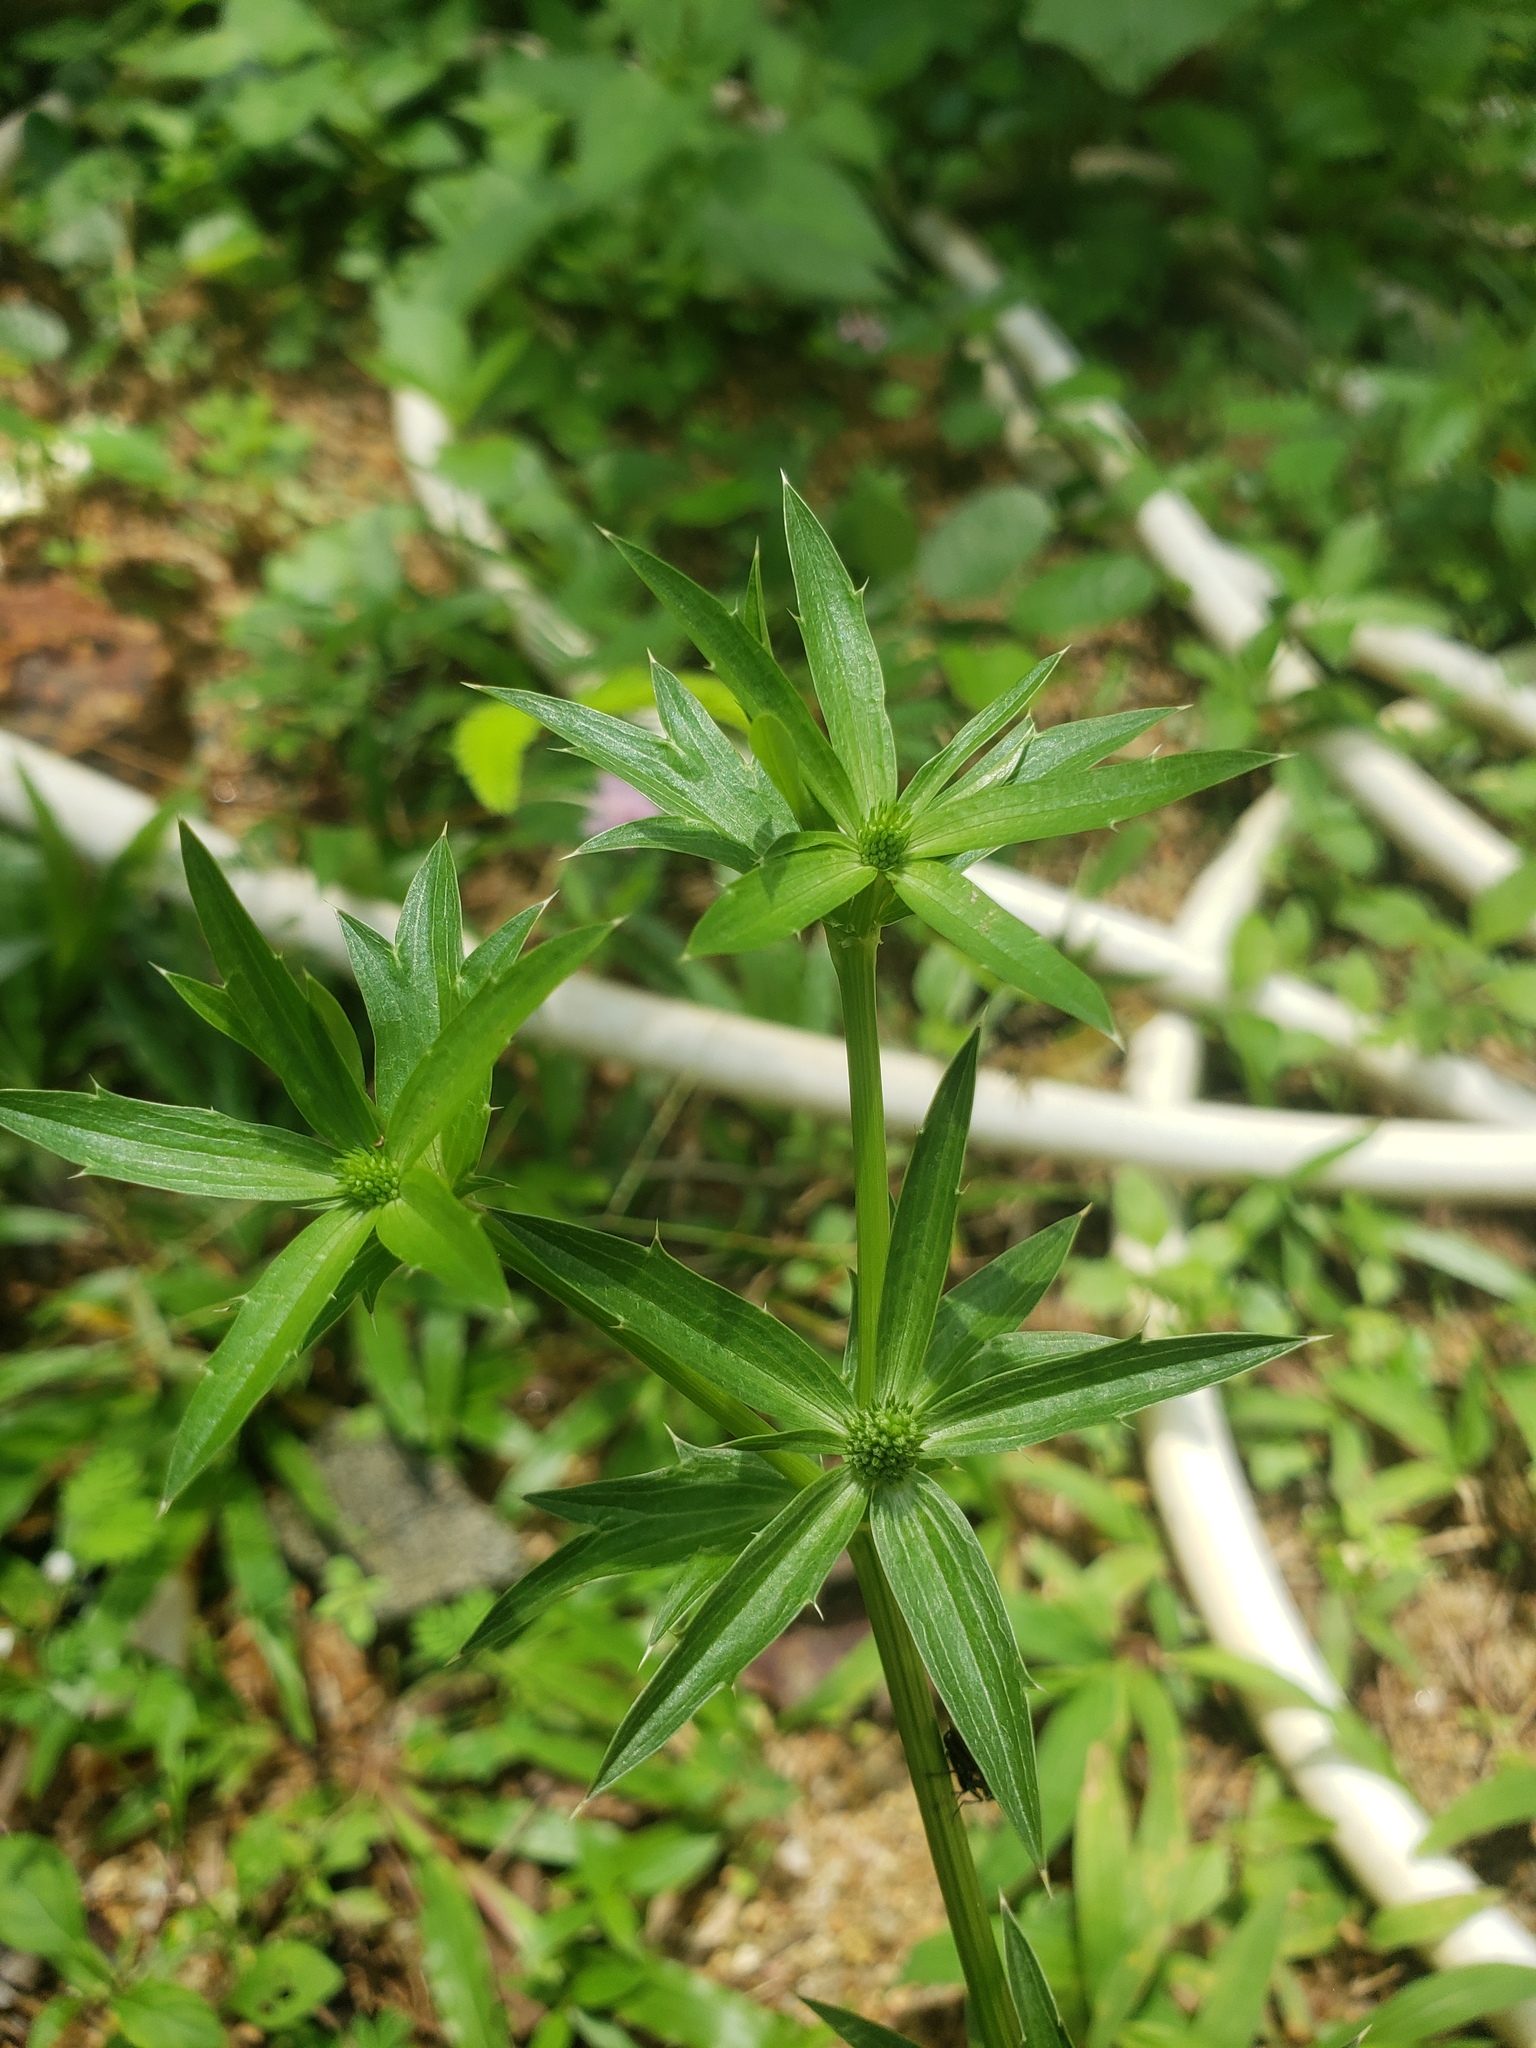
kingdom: Plantae
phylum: Tracheophyta
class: Magnoliopsida
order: Apiales
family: Apiaceae
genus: Eryngium
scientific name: Eryngium foetidum
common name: Fitweed
